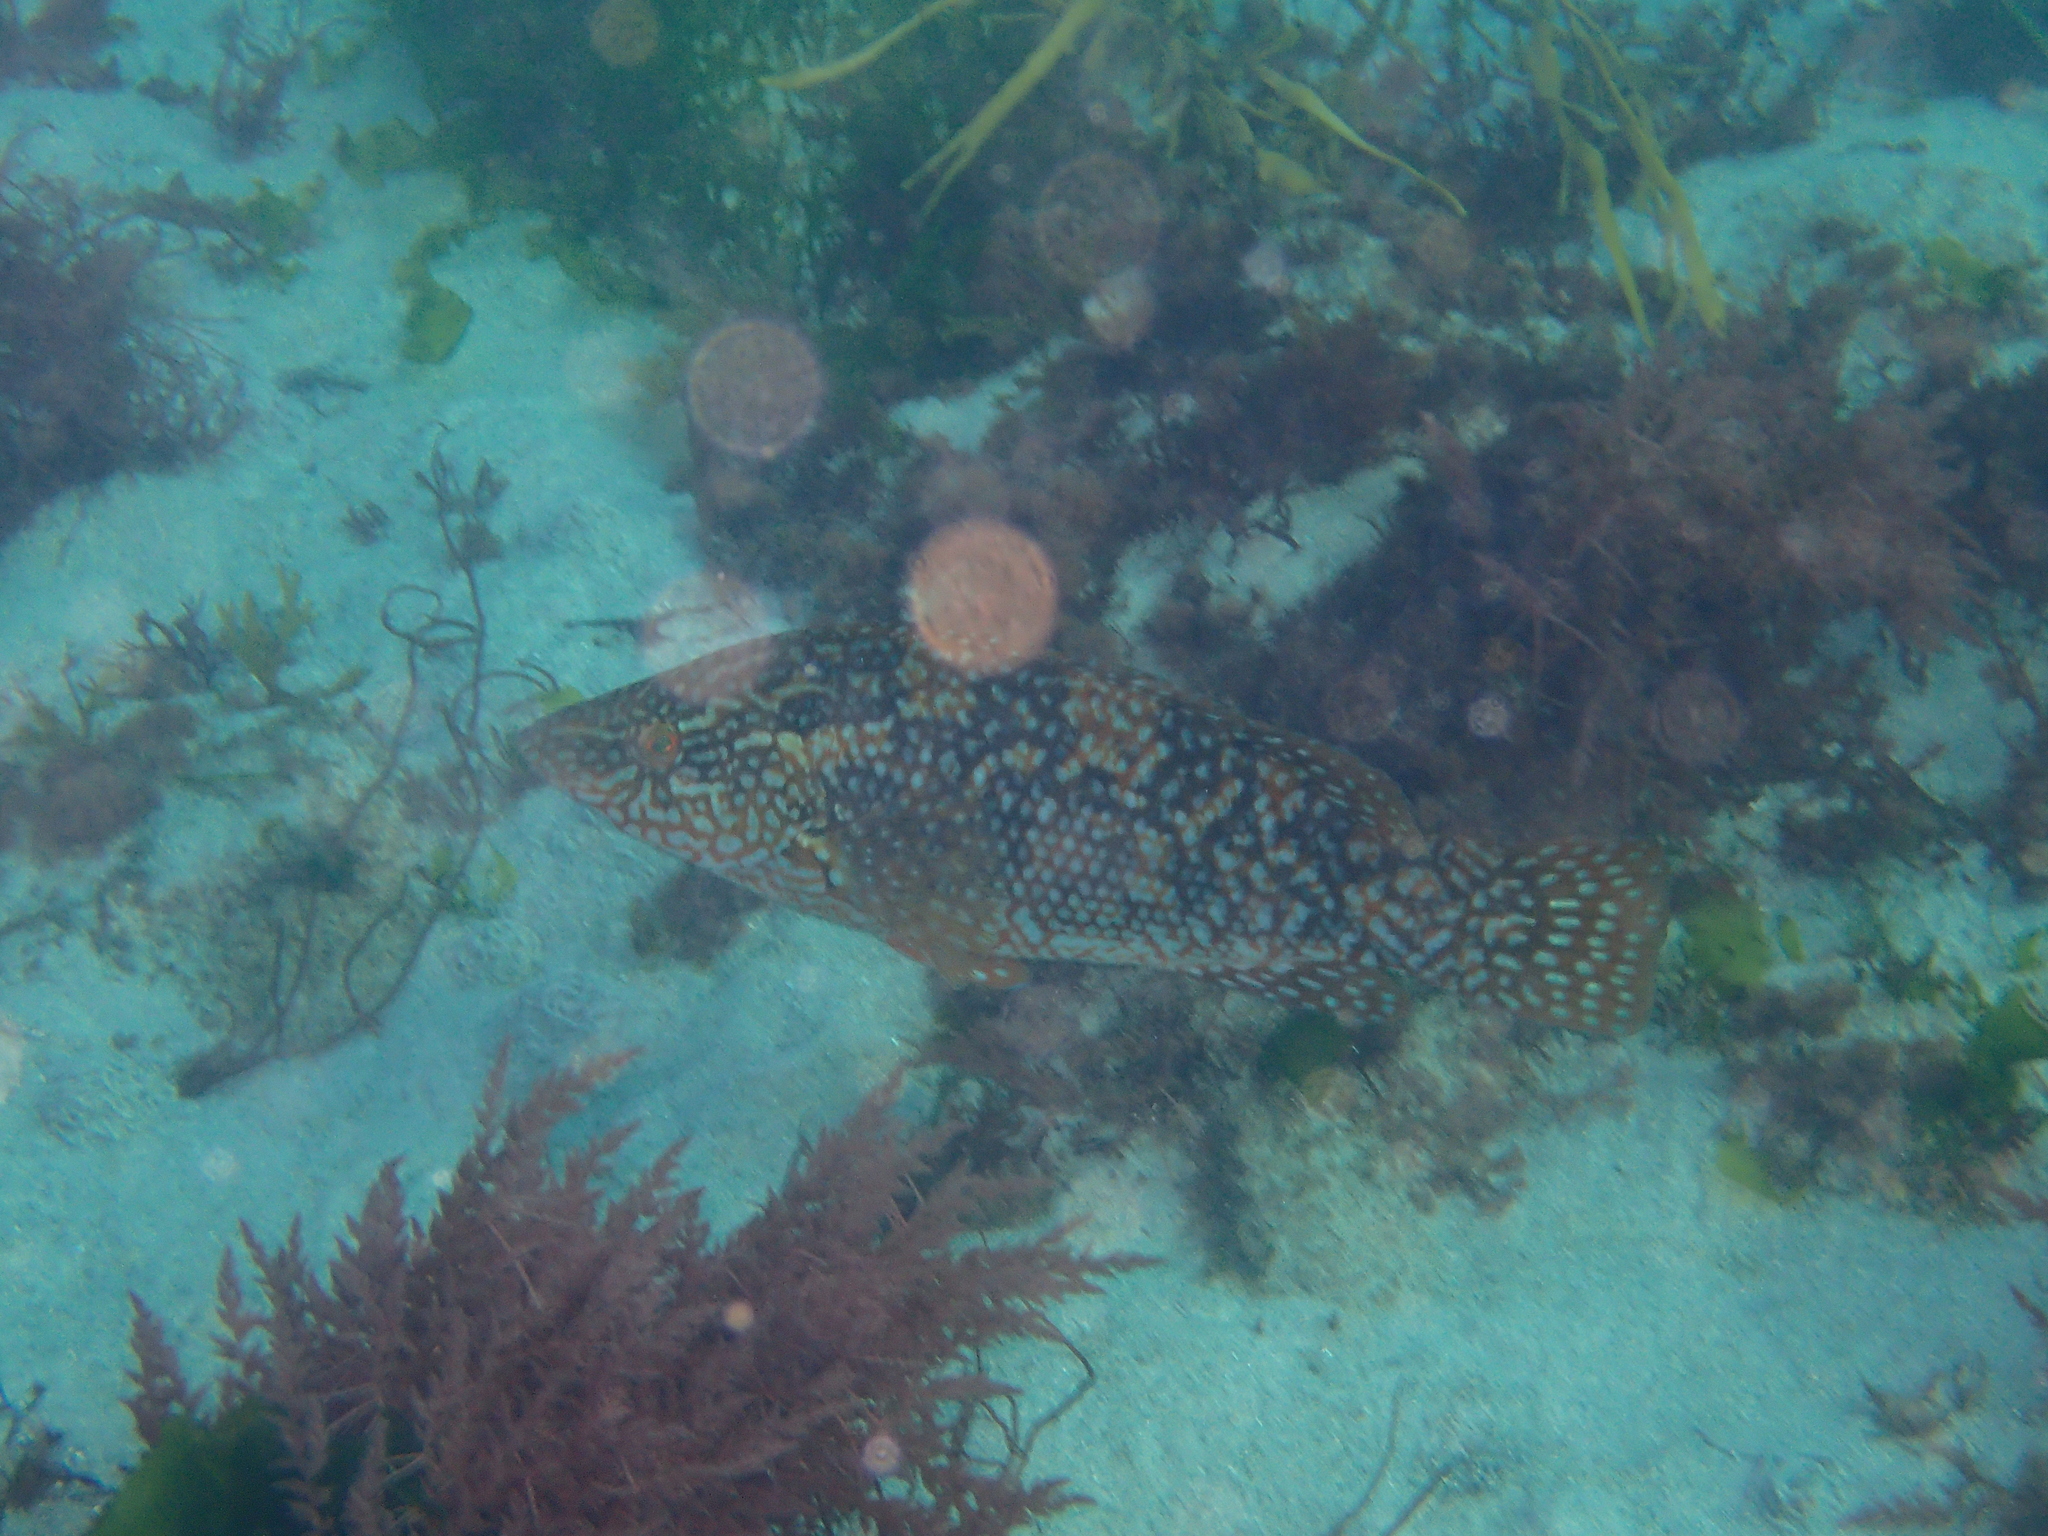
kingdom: Animalia
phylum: Chordata
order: Perciformes
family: Labridae
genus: Labrus
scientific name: Labrus bergylta
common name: Ballan wrasse
